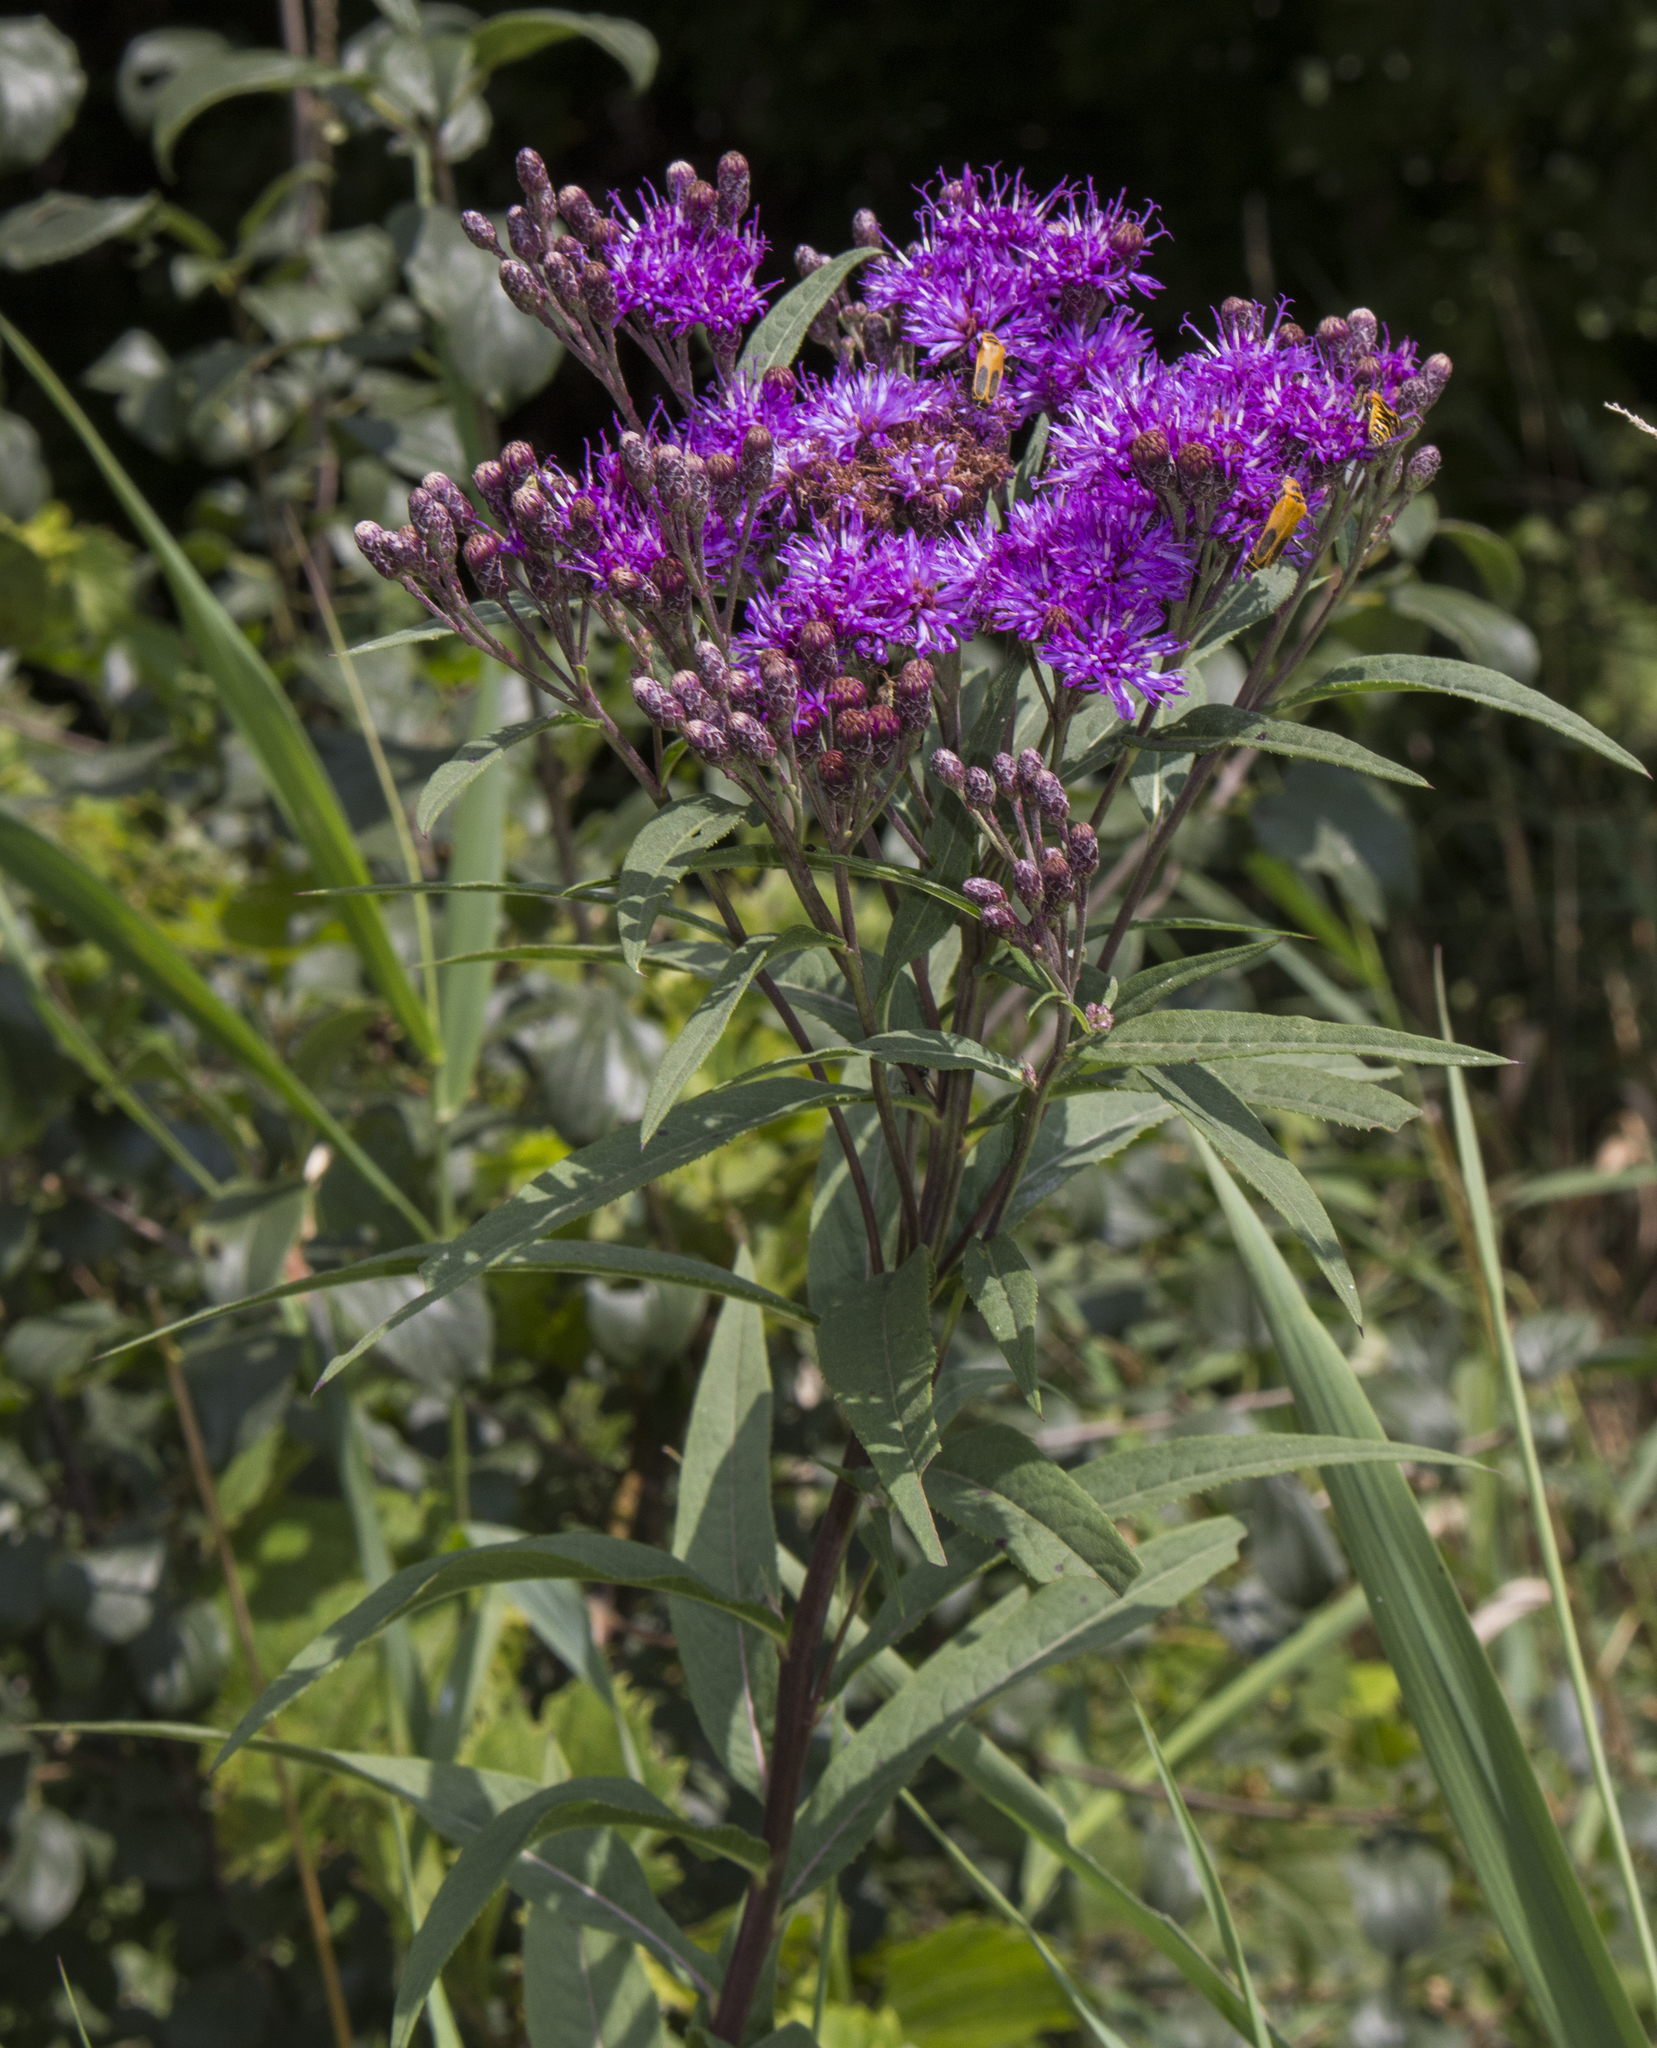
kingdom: Plantae
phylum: Tracheophyta
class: Magnoliopsida
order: Asterales
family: Asteraceae
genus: Vernonia
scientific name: Vernonia fasciculata
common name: Fascicled ironweed
